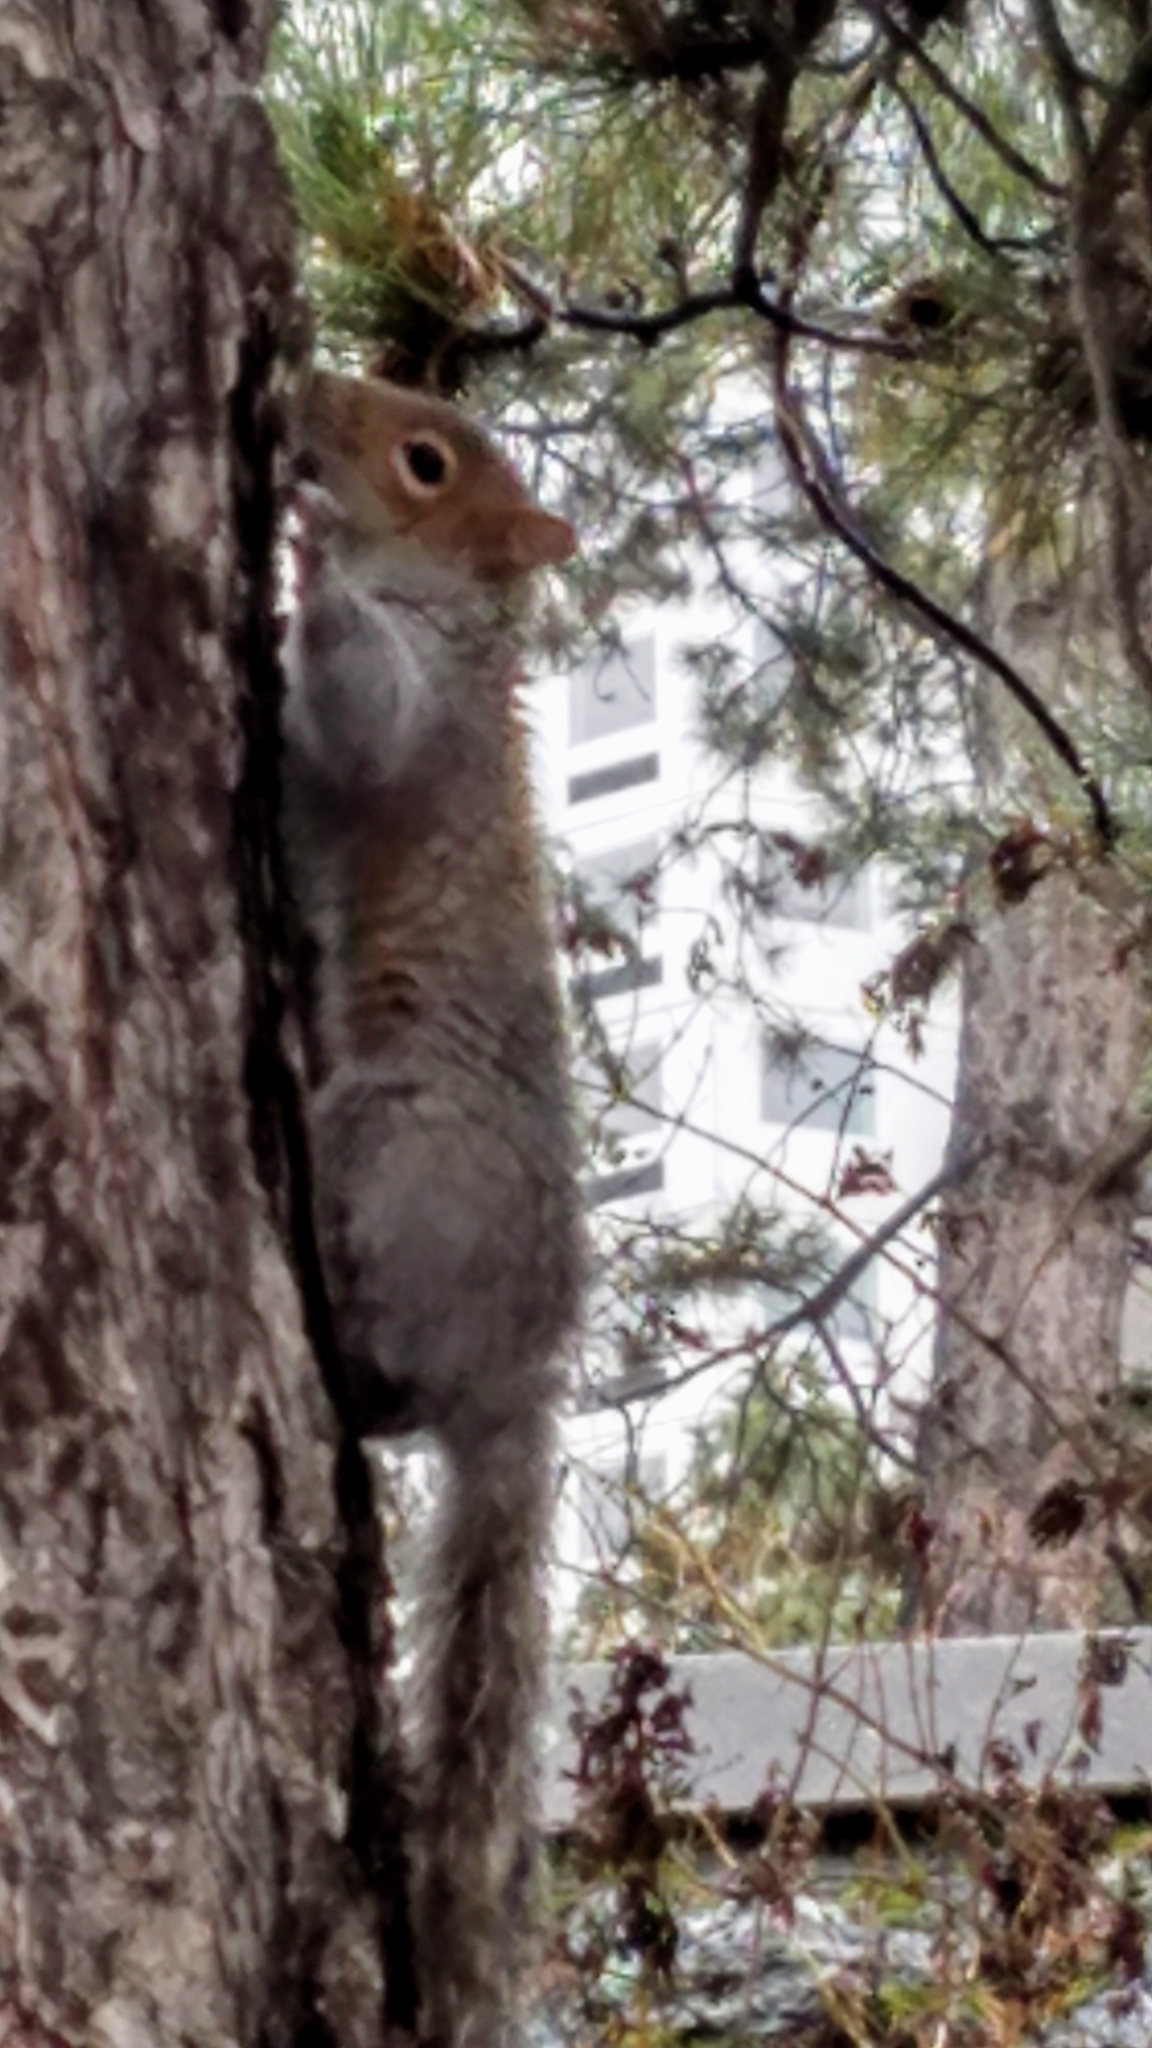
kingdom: Animalia
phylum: Chordata
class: Mammalia
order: Rodentia
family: Sciuridae
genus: Sciurus
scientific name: Sciurus carolinensis
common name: Eastern gray squirrel
